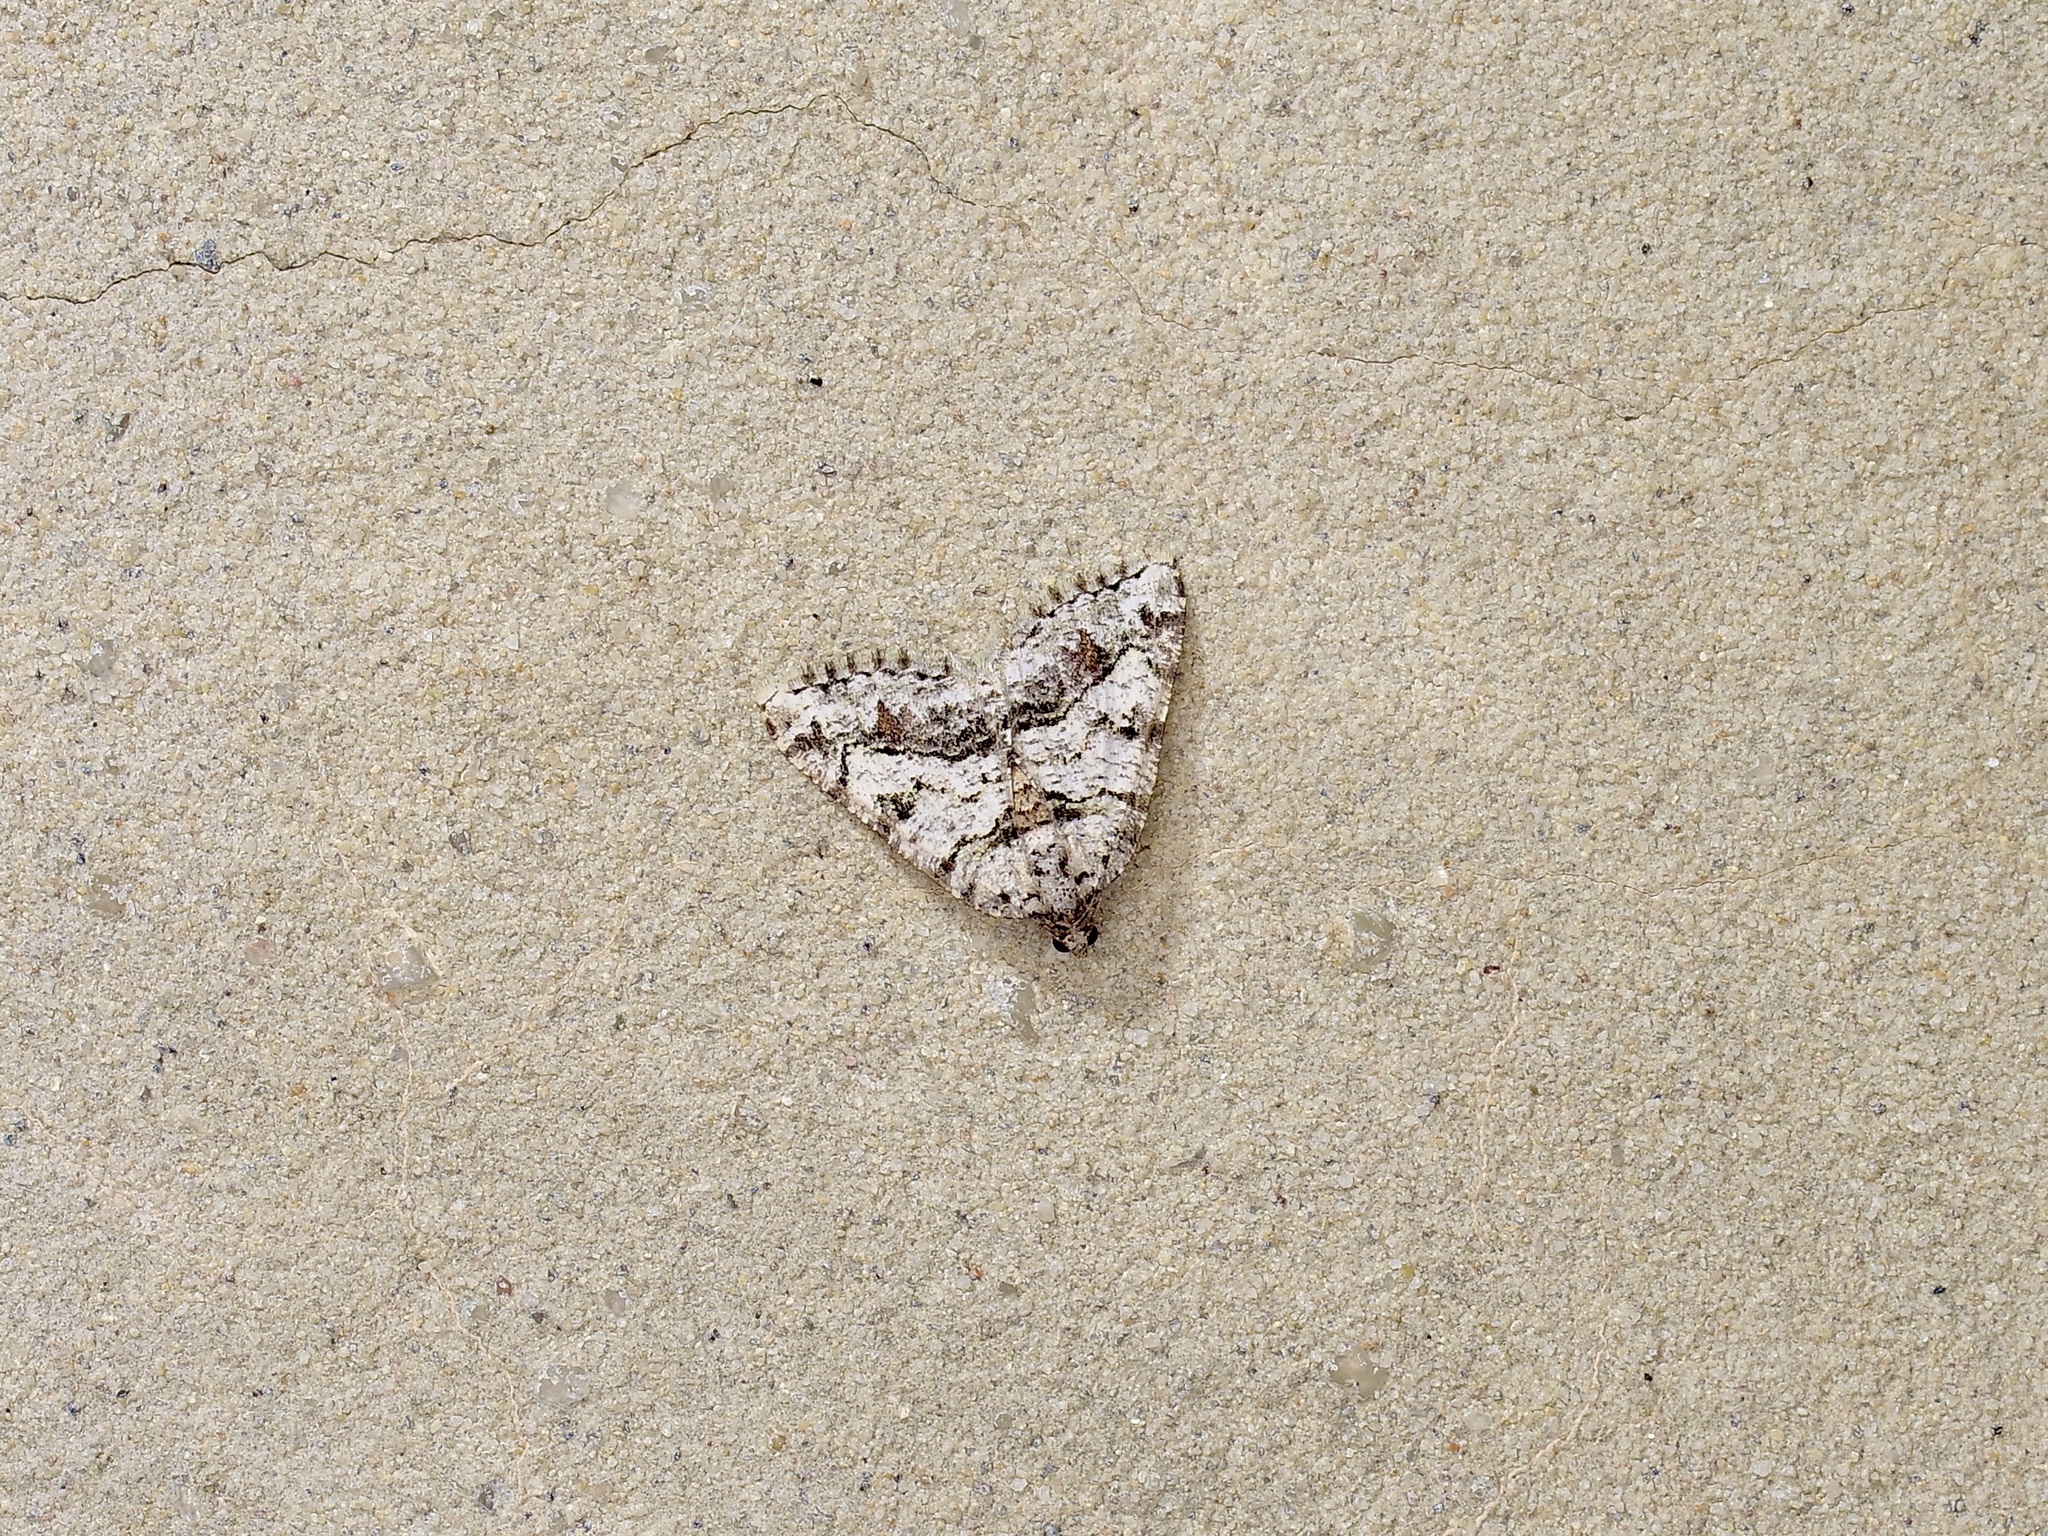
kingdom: Animalia
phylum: Arthropoda
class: Insecta
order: Lepidoptera
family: Geometridae
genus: Macaria
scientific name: Macaria graphidaria
